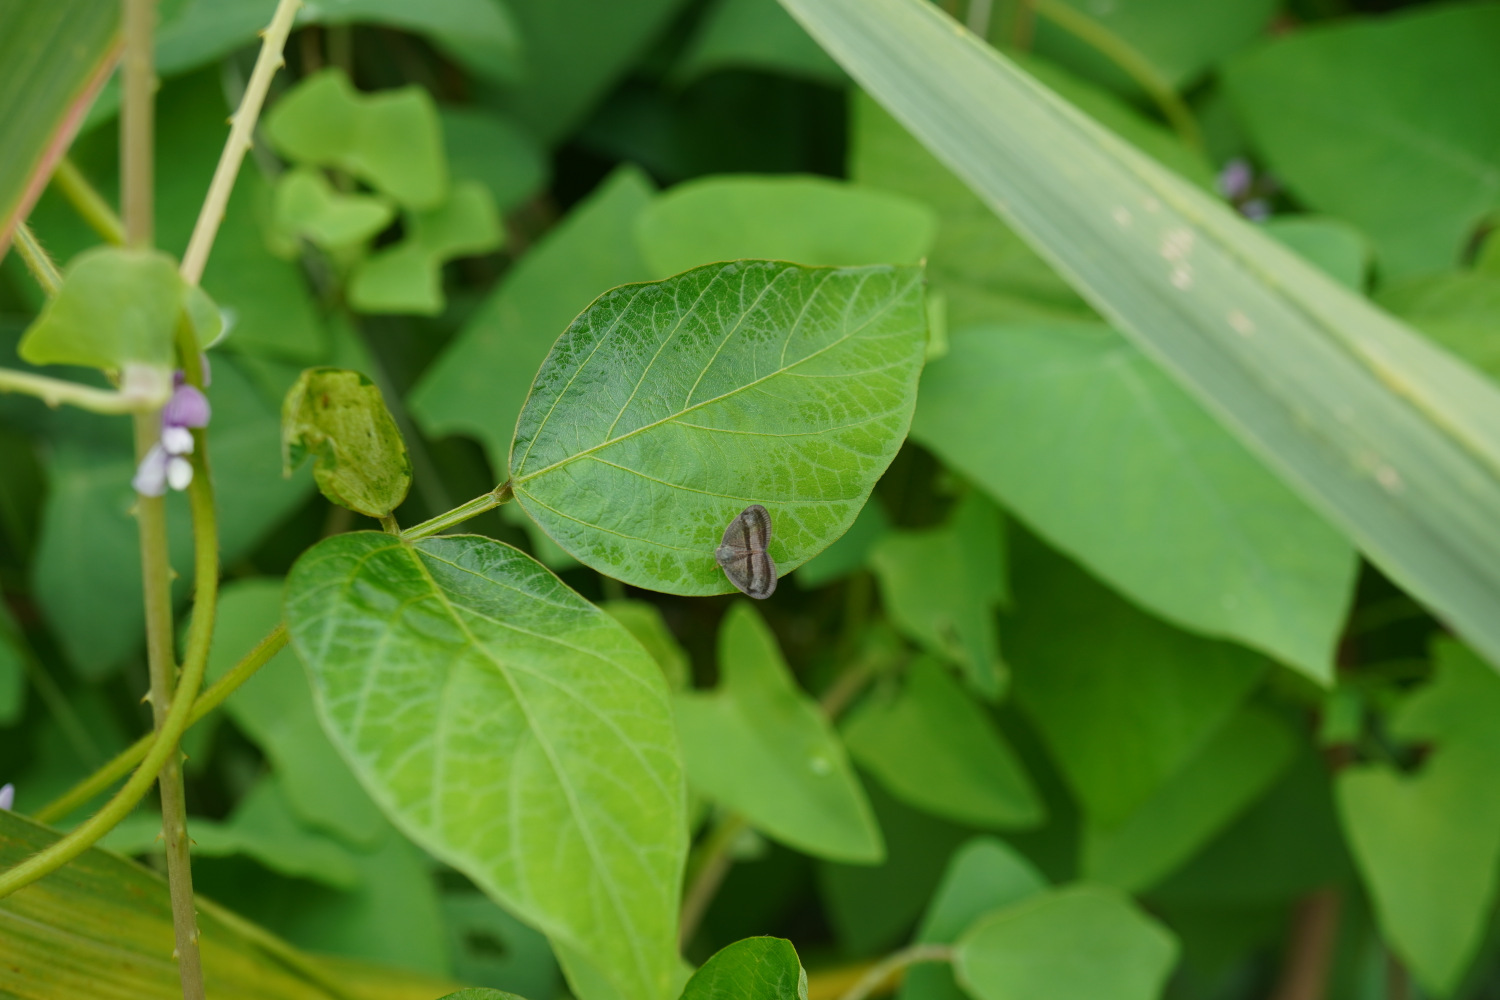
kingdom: Animalia
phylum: Arthropoda
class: Insecta
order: Hemiptera
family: Ricaniidae
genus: Ricania
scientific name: Ricania taeniata
